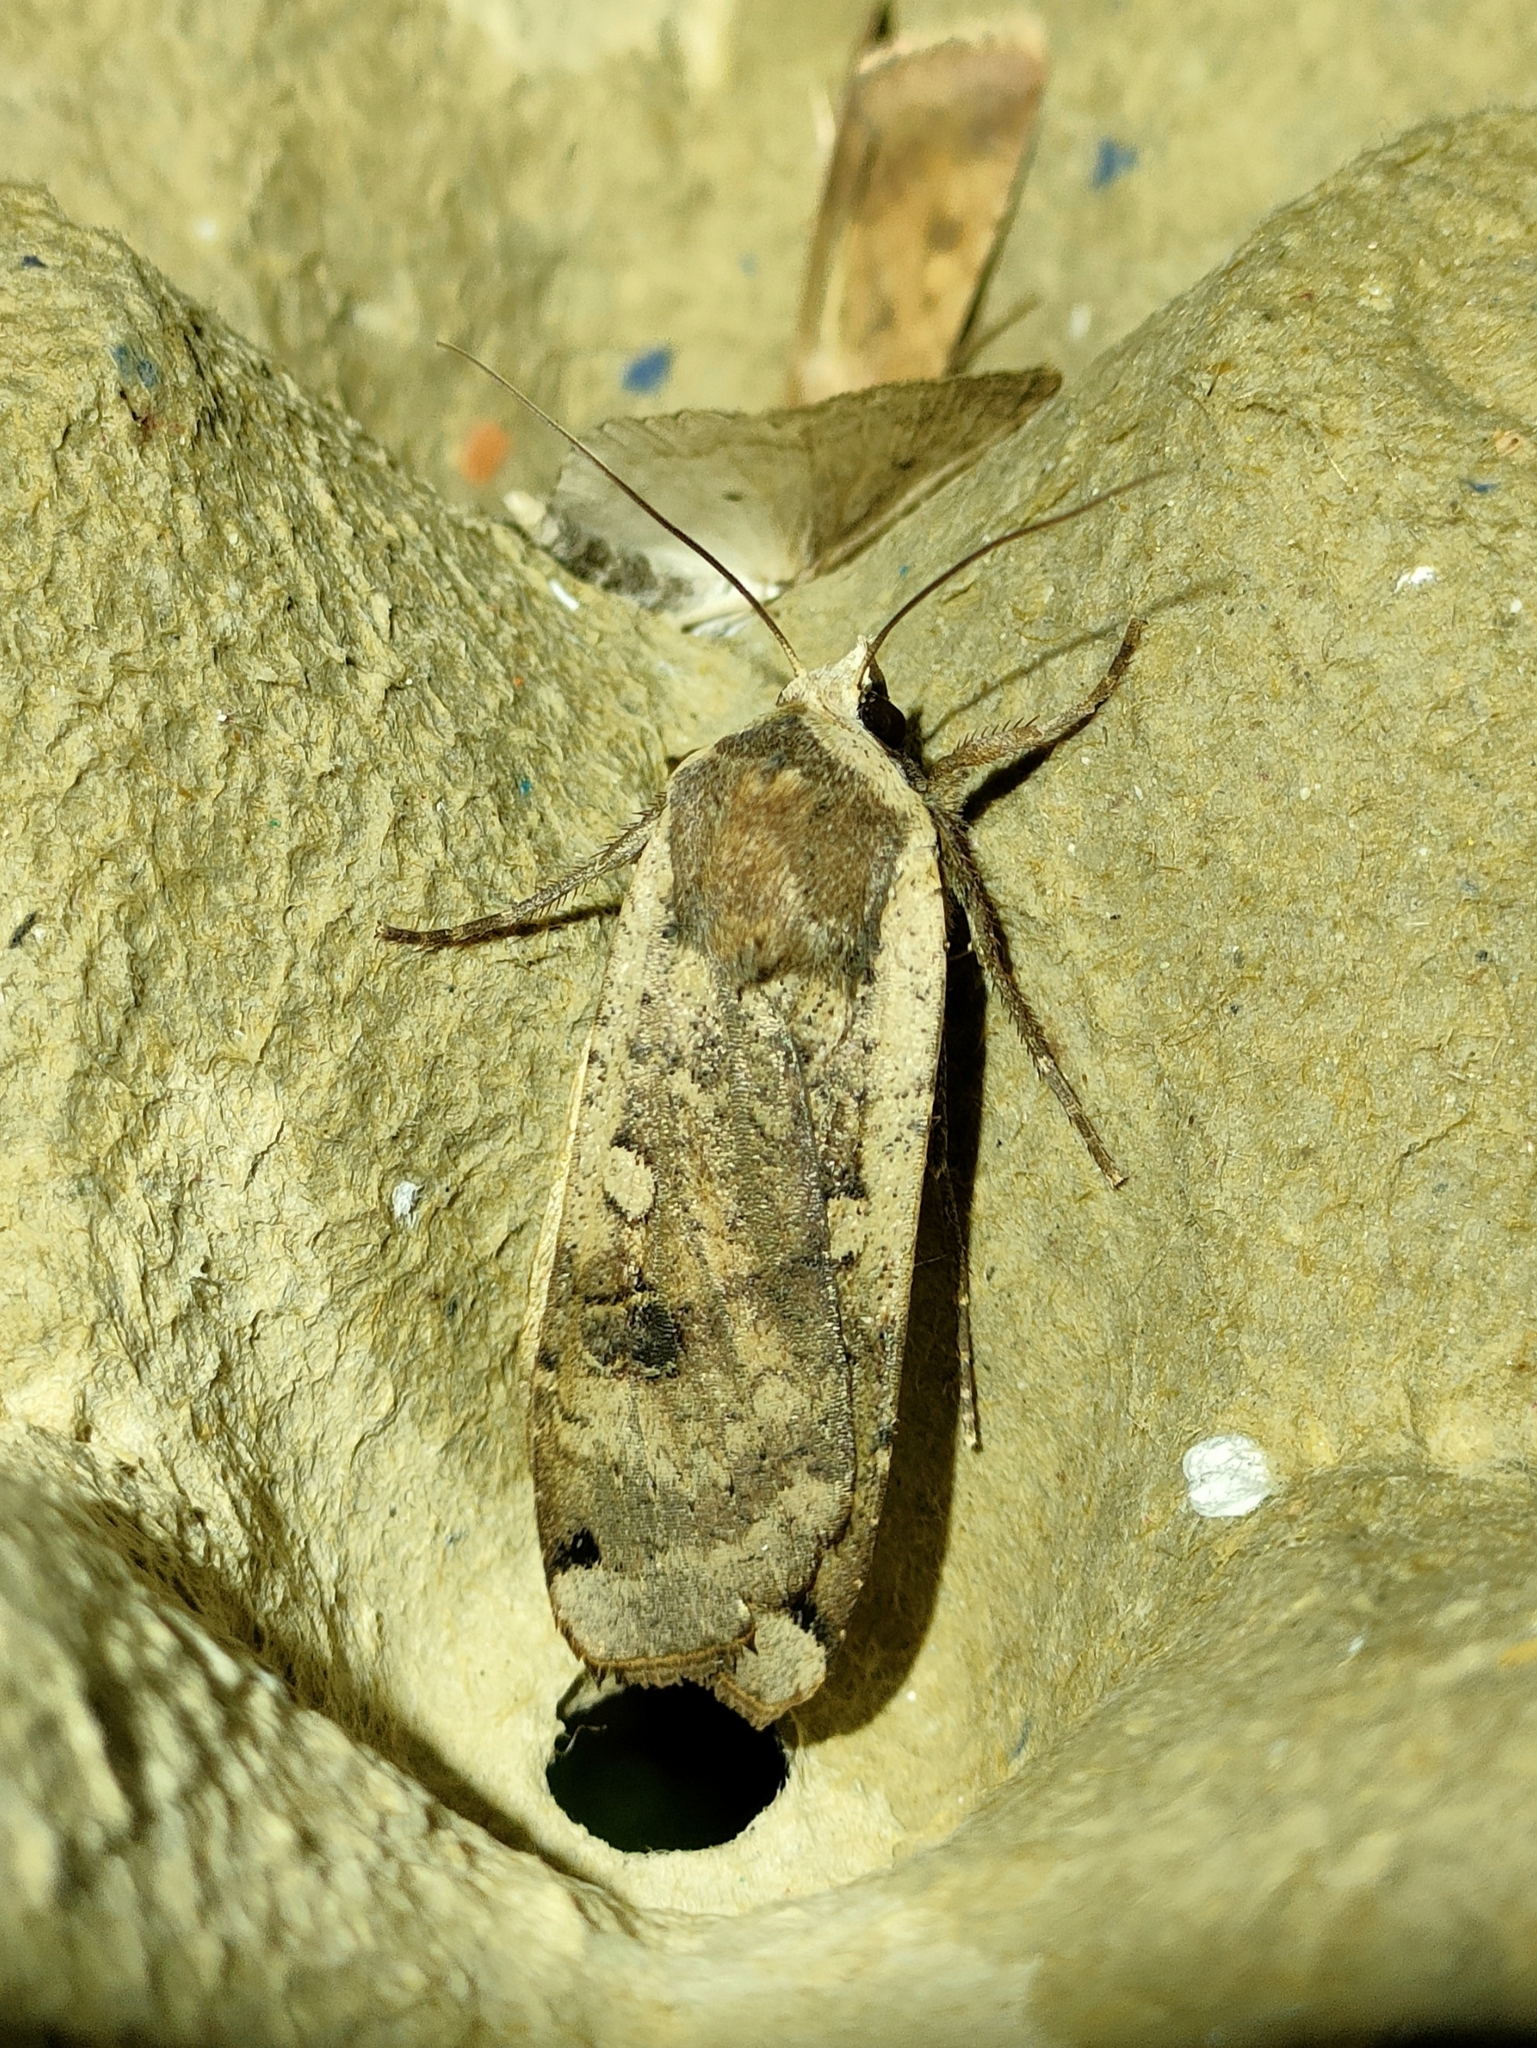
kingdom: Animalia
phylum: Arthropoda
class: Insecta
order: Lepidoptera
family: Noctuidae
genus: Noctua
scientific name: Noctua pronuba
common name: Large yellow underwing
